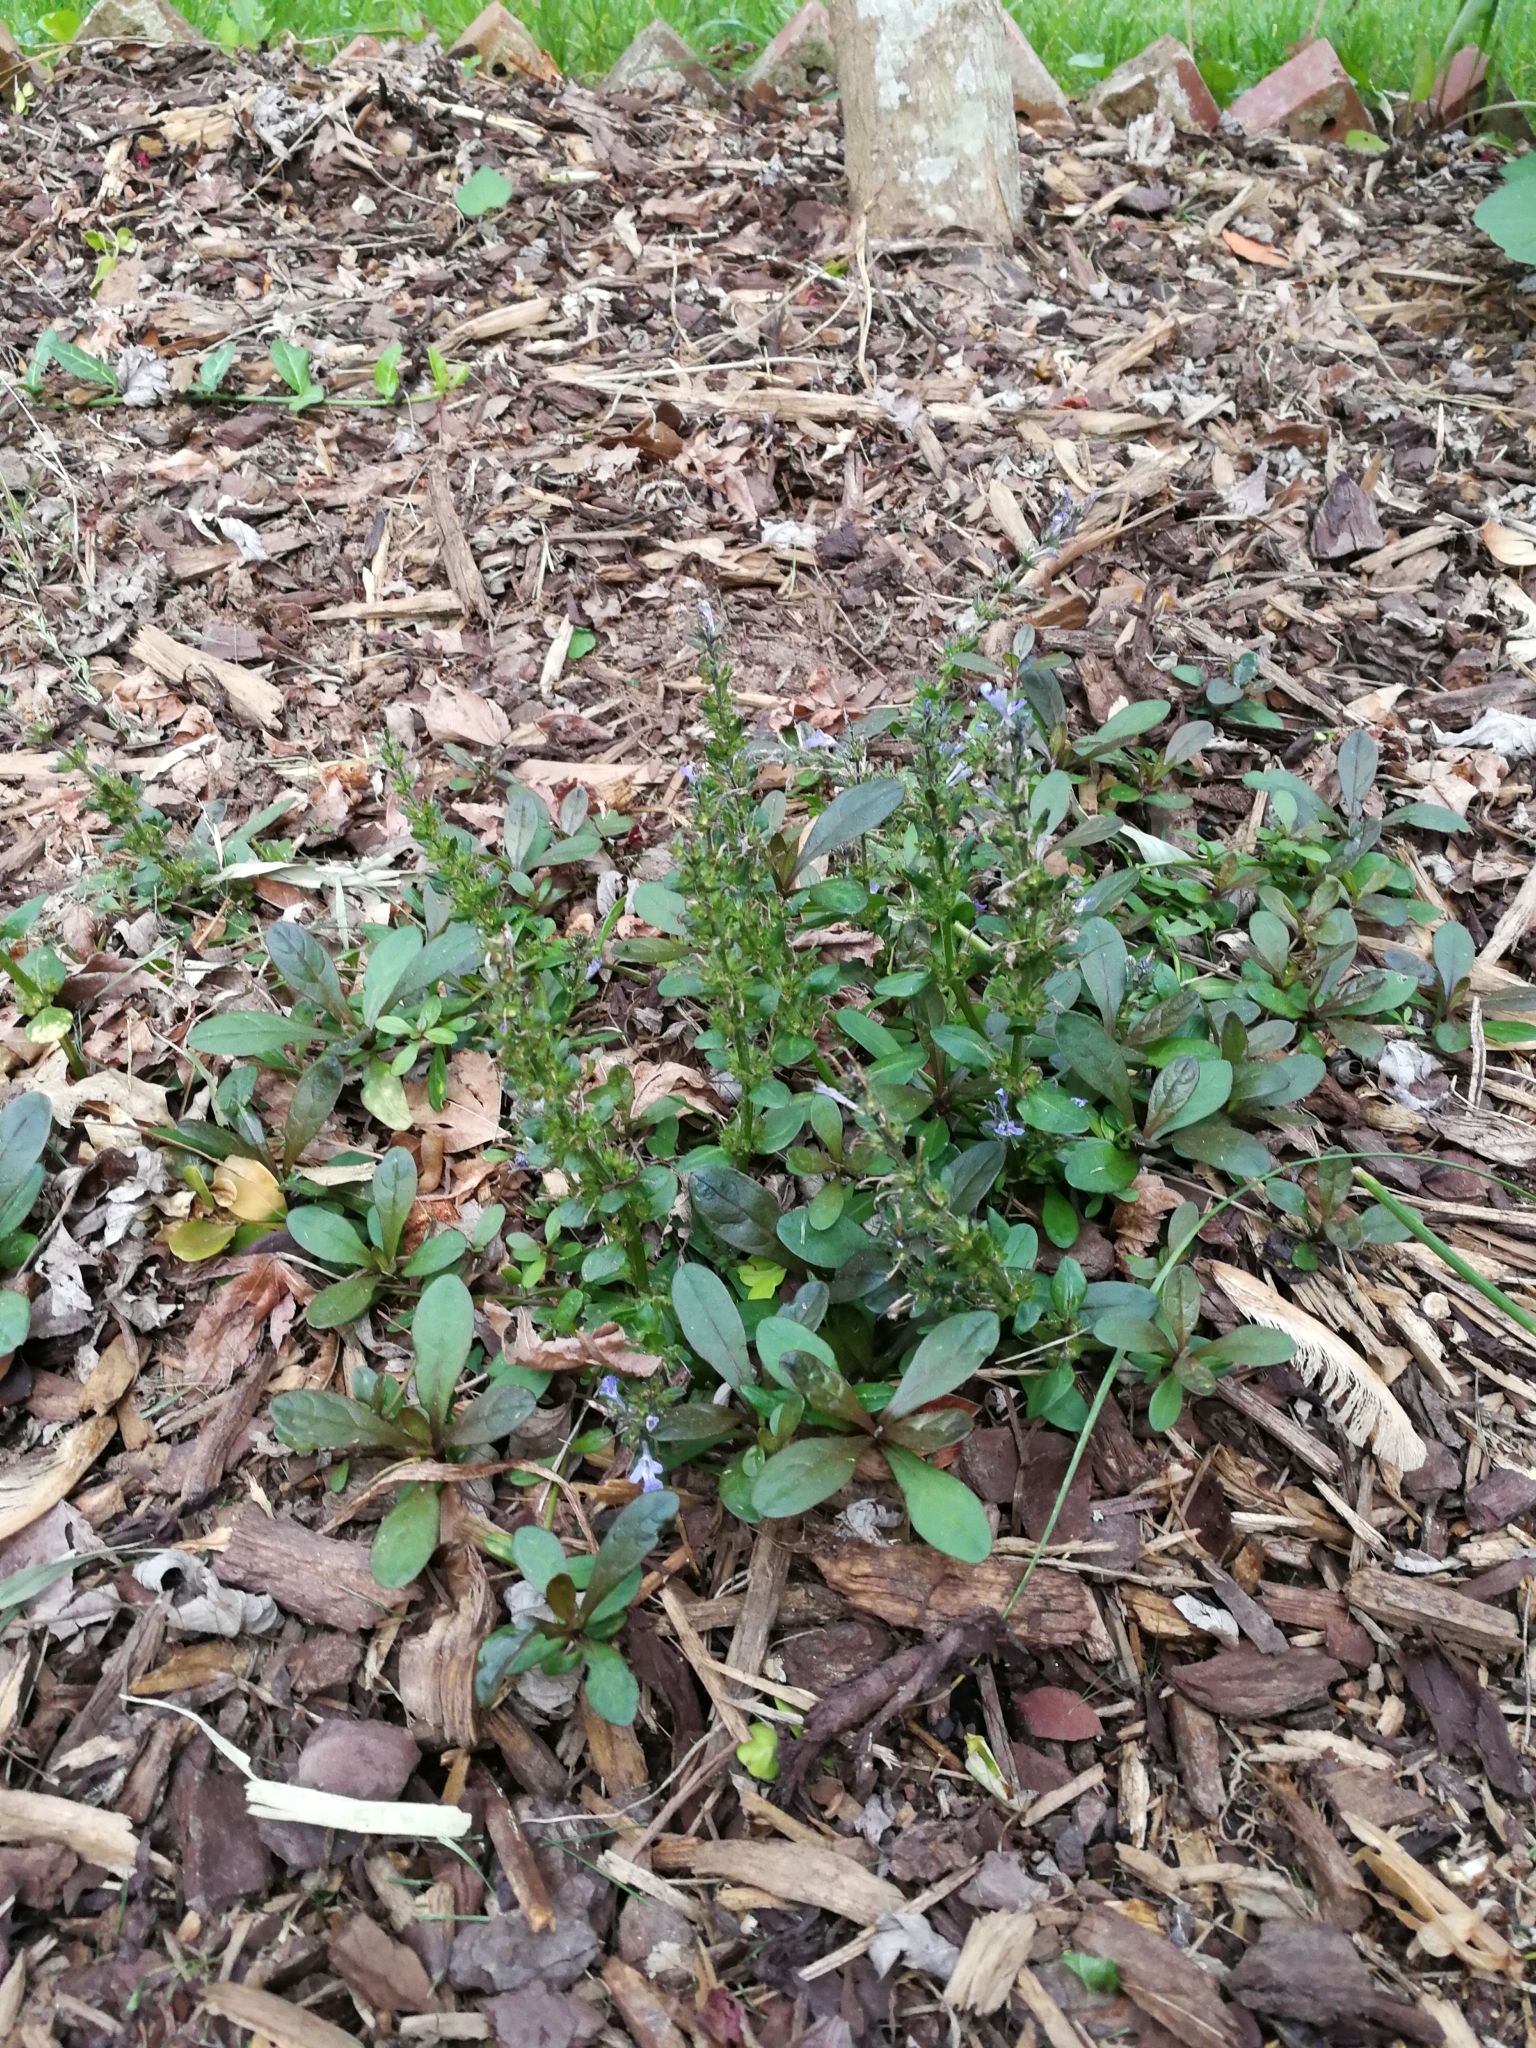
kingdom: Plantae
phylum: Tracheophyta
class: Magnoliopsida
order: Lamiales
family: Lamiaceae
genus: Ajuga
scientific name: Ajuga reptans
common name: Bugle
